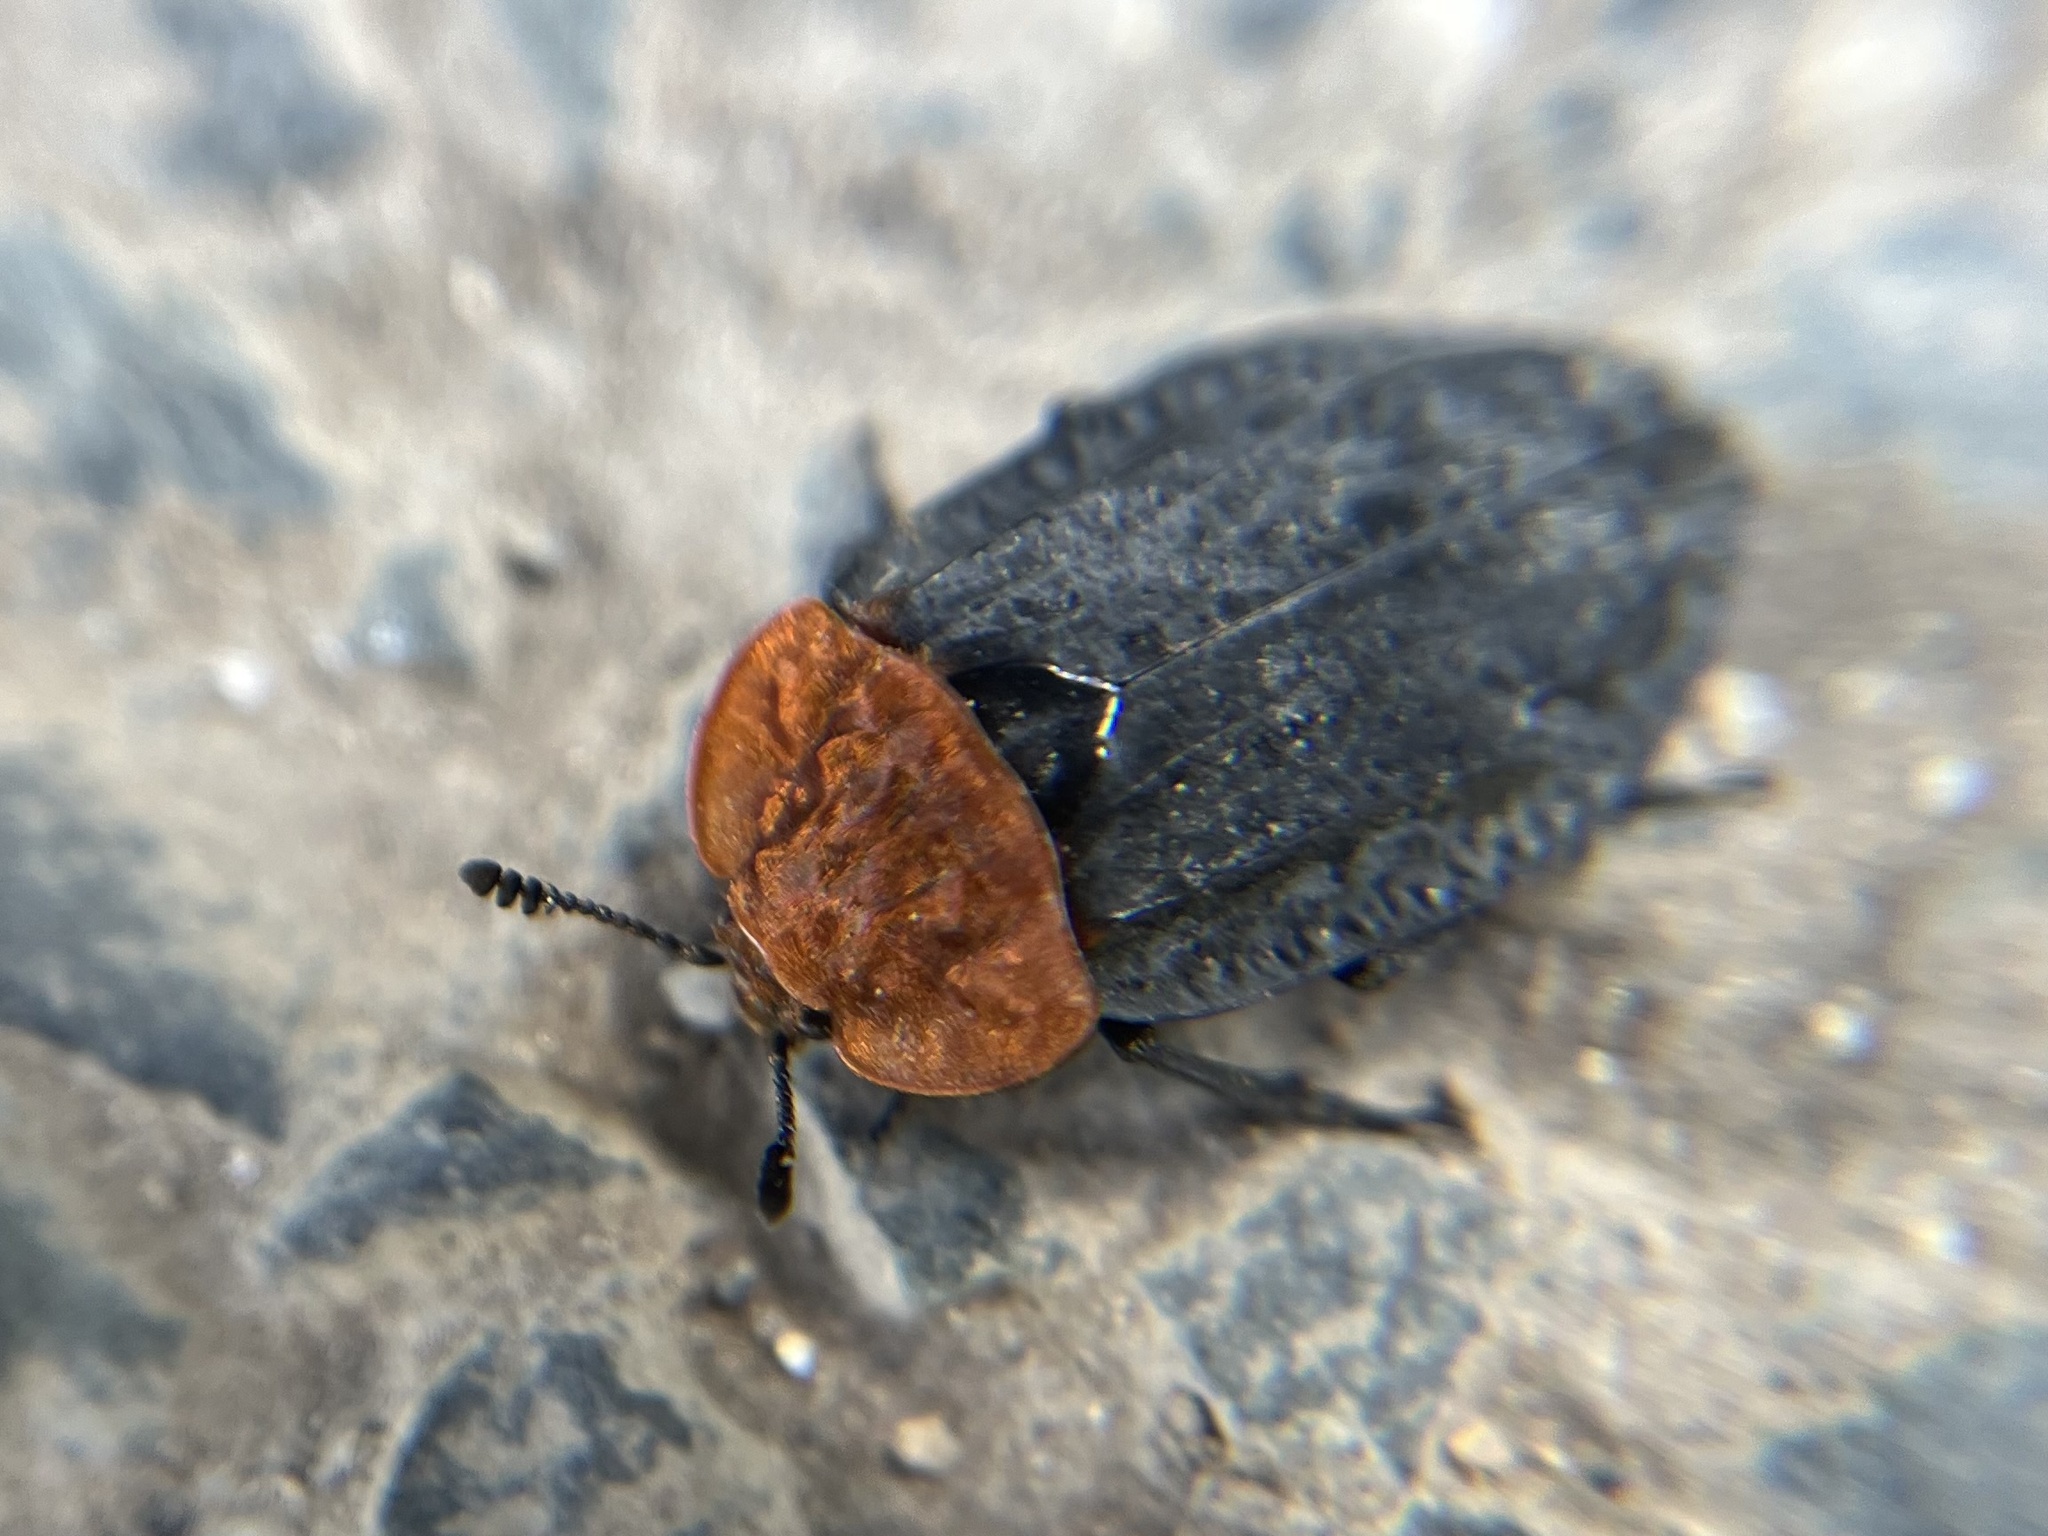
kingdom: Animalia
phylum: Arthropoda
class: Insecta
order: Coleoptera
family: Staphylinidae
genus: Oiceoptoma
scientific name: Oiceoptoma thoracicum
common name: Red-breasted carrion beetle
